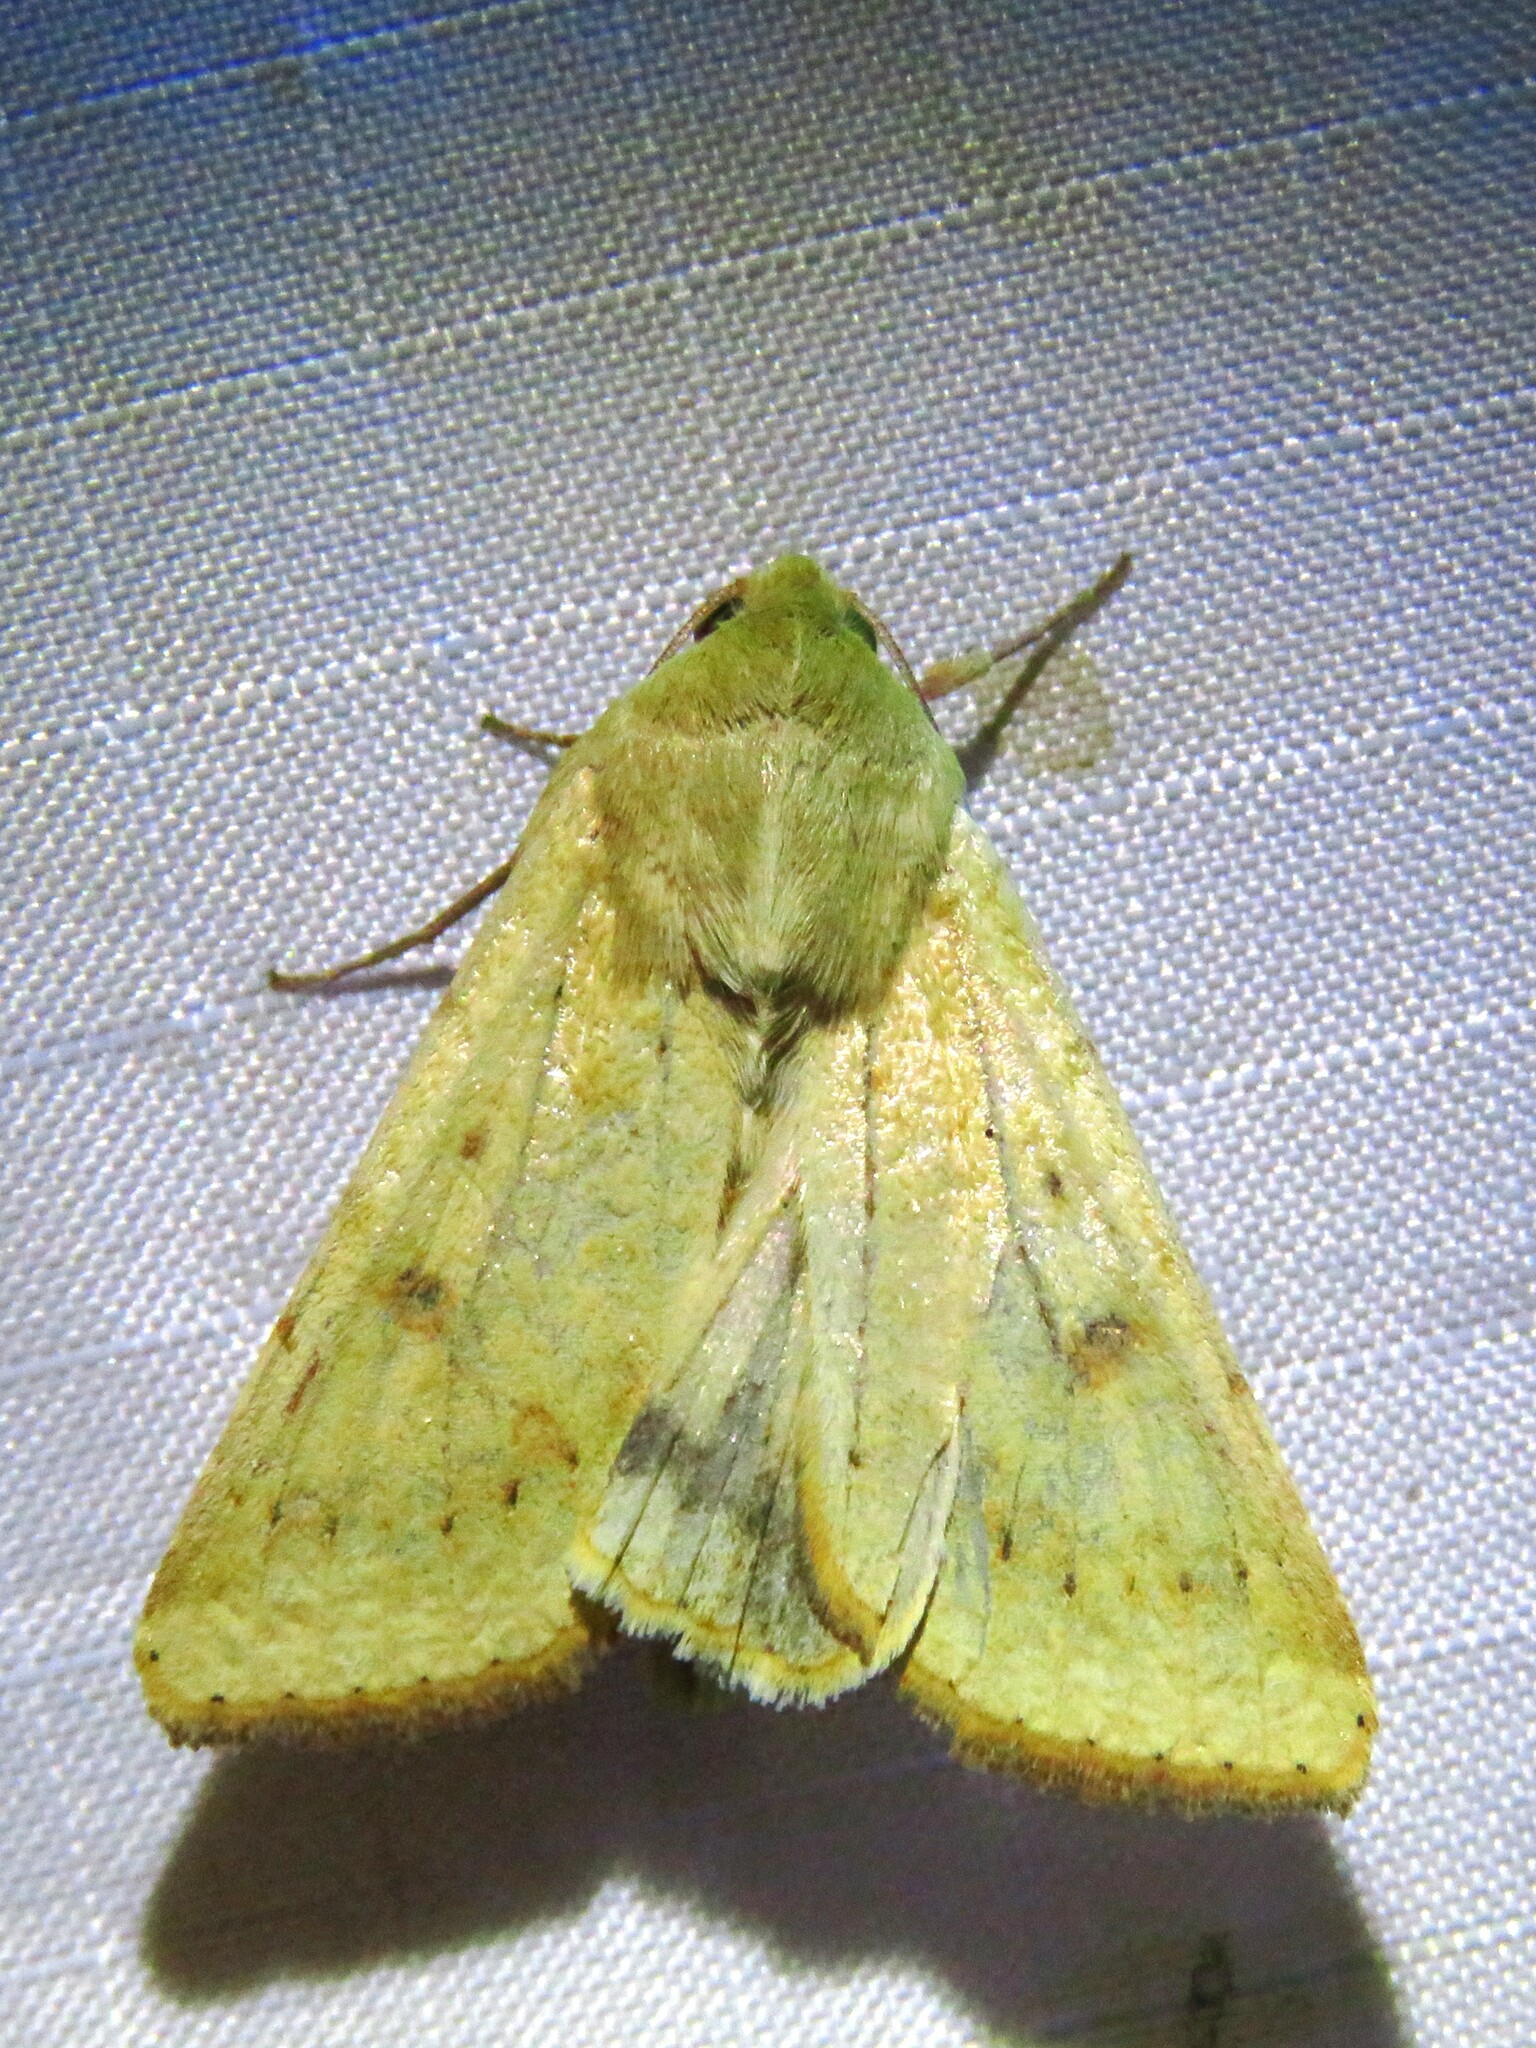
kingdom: Animalia
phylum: Arthropoda
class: Insecta
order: Lepidoptera
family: Noctuidae
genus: Helicoverpa
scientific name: Helicoverpa zea
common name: Bollworm
